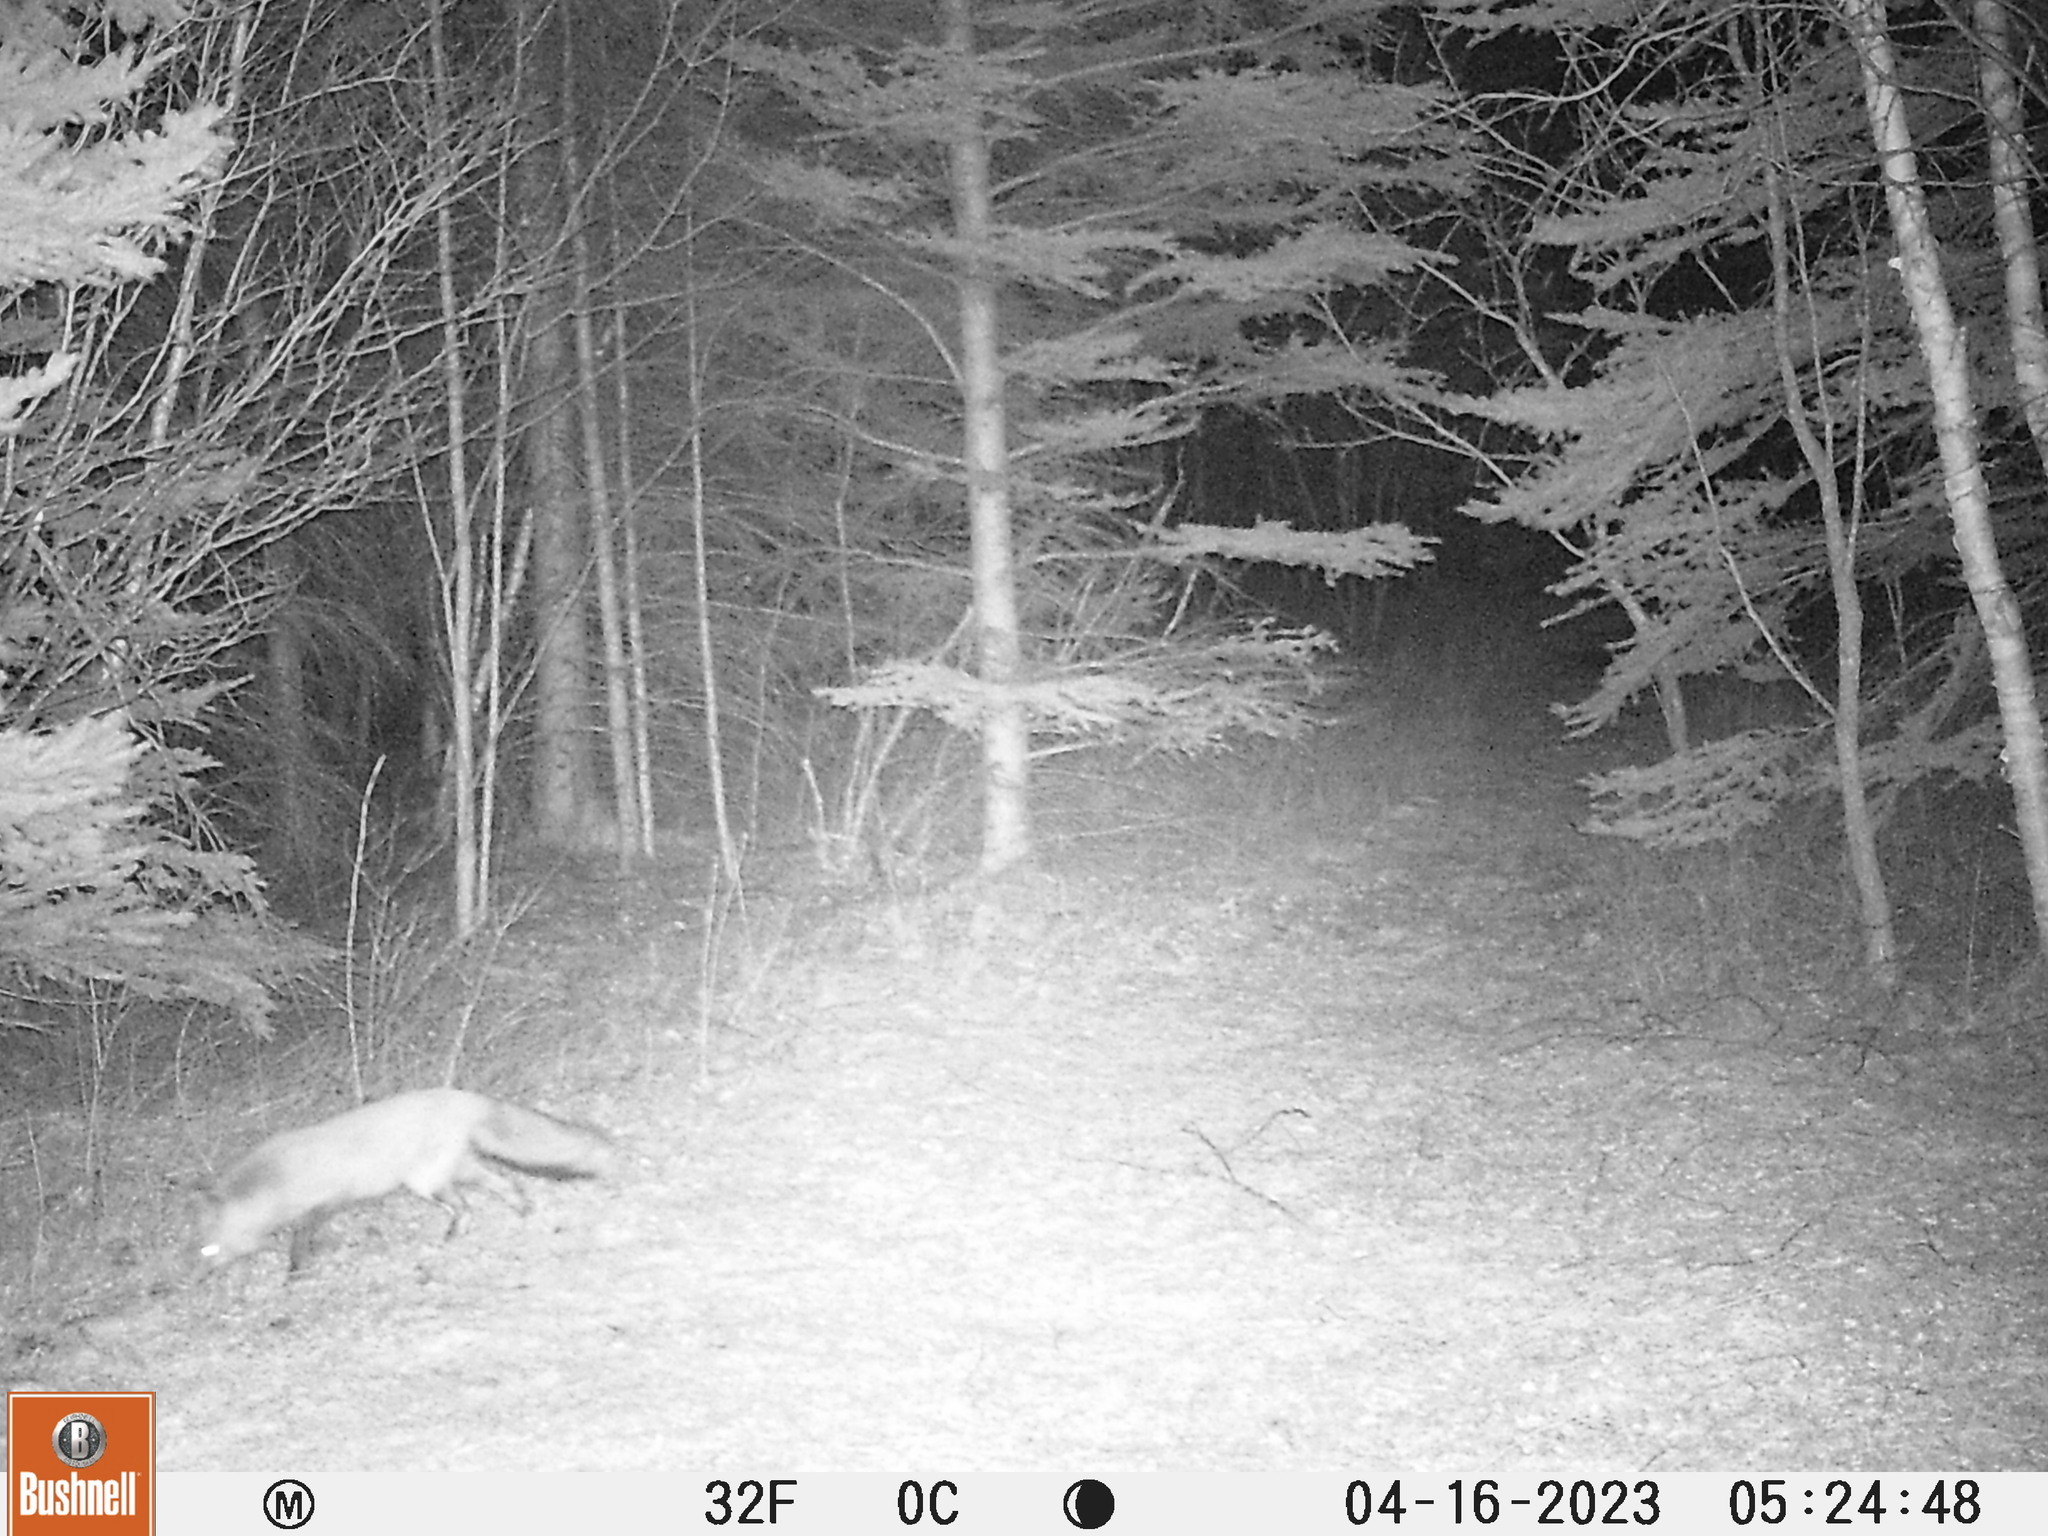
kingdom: Animalia
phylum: Chordata
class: Mammalia
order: Carnivora
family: Canidae
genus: Vulpes
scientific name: Vulpes vulpes
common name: Red fox
